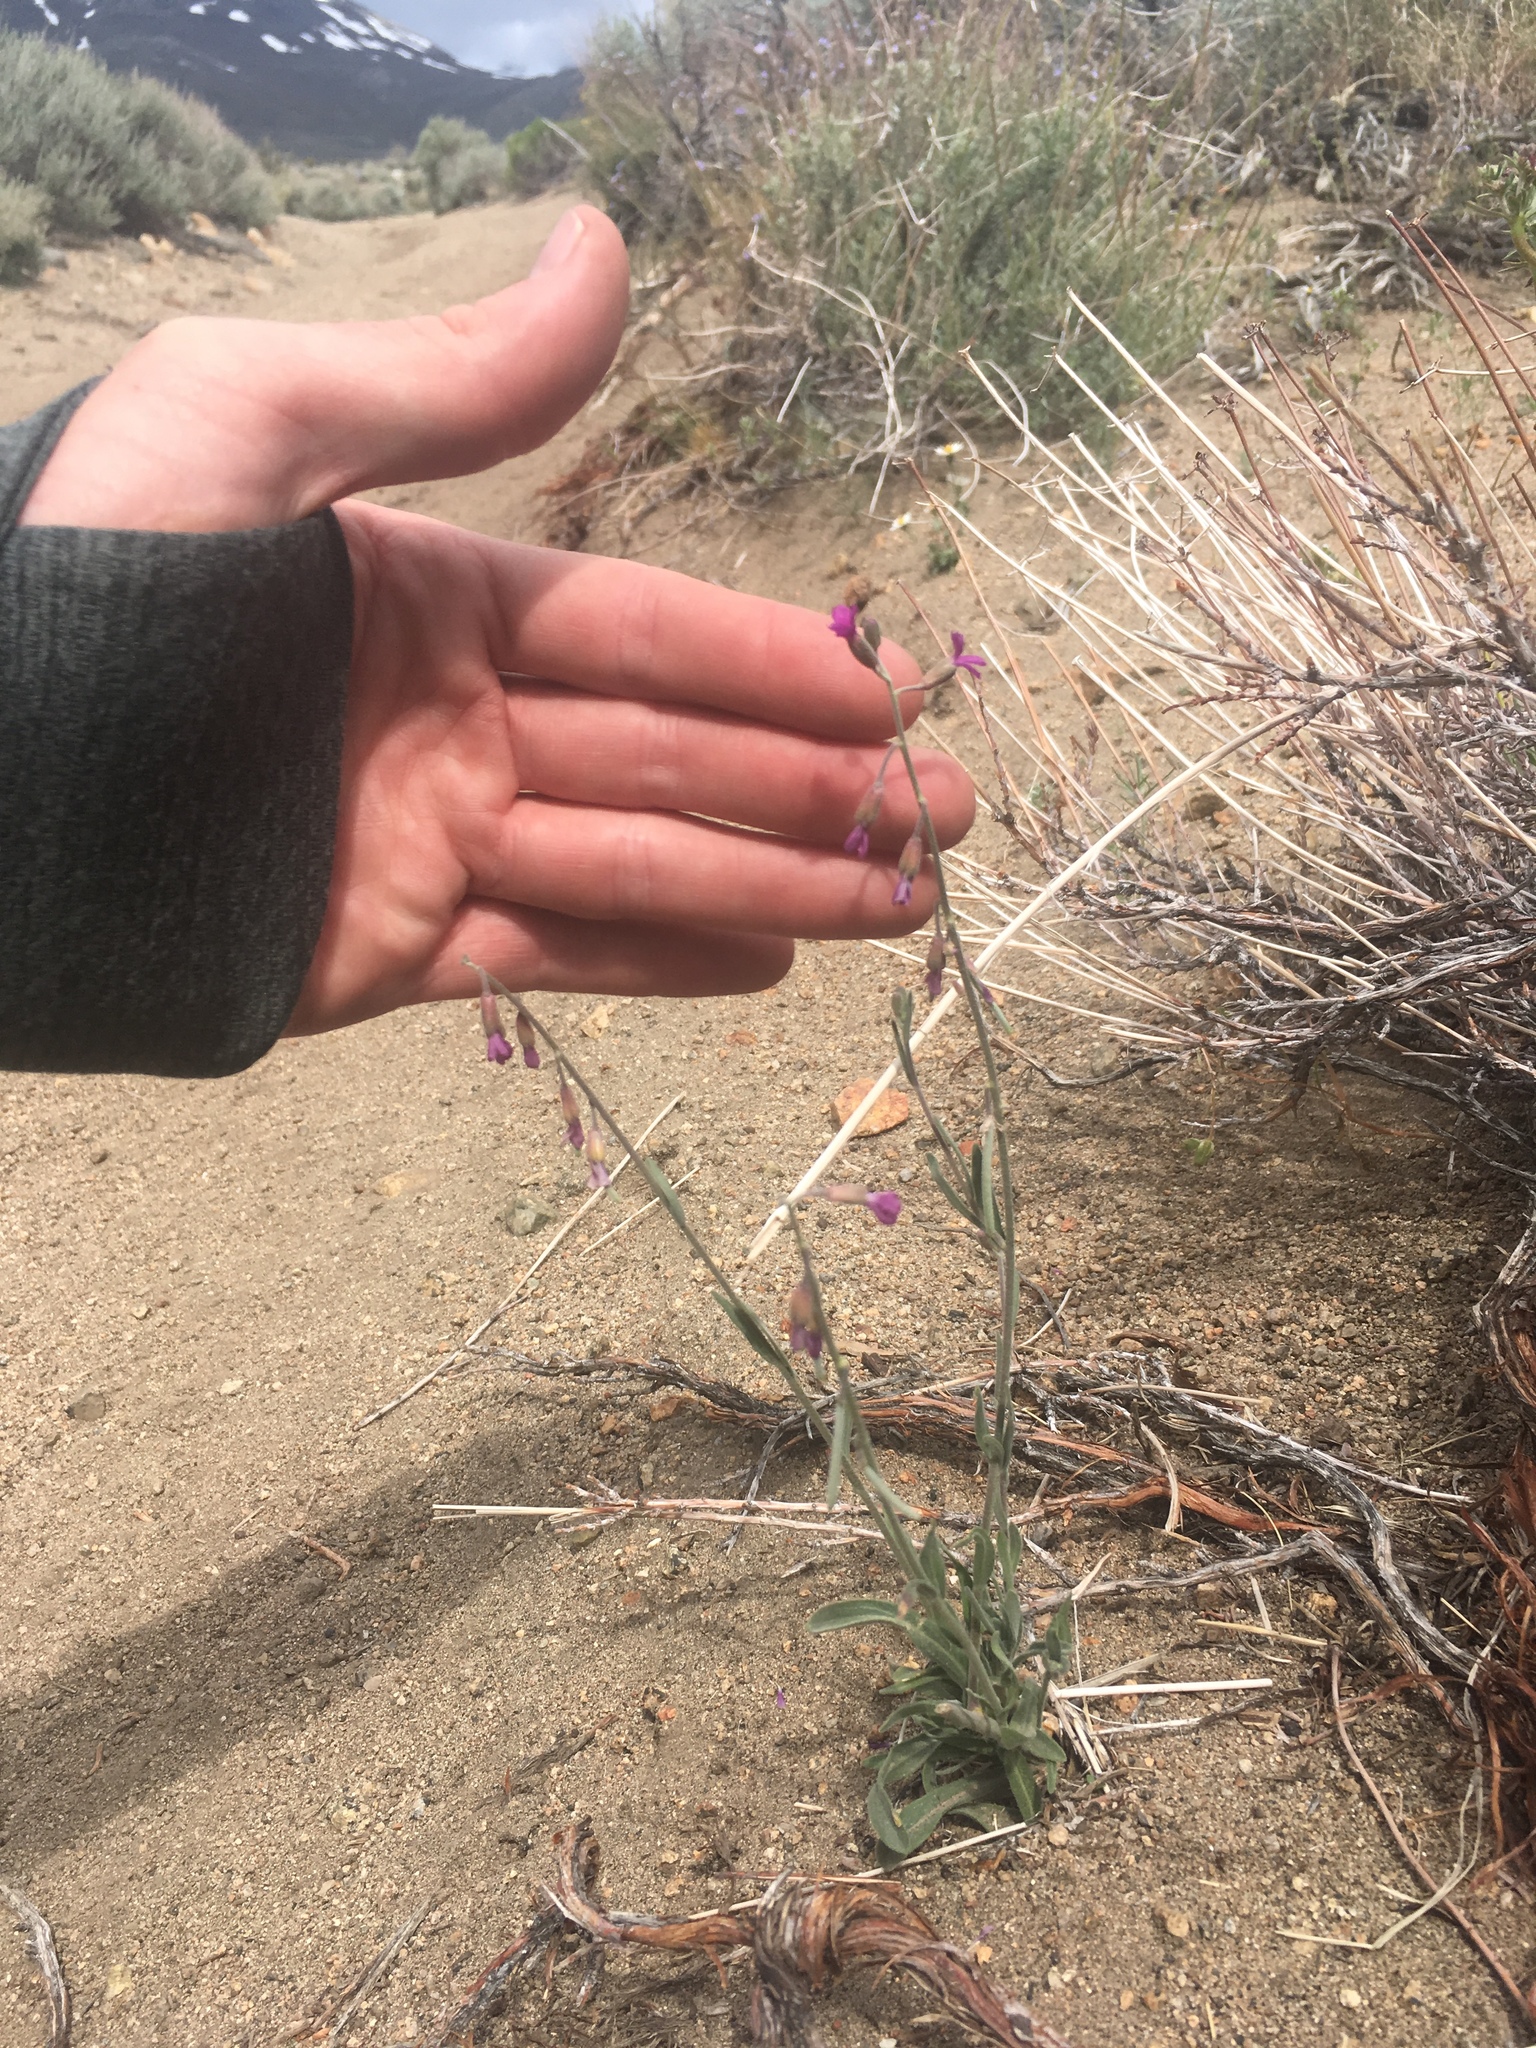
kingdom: Plantae
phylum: Tracheophyta
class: Magnoliopsida
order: Brassicales
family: Brassicaceae
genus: Boechera
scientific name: Boechera pulchra
